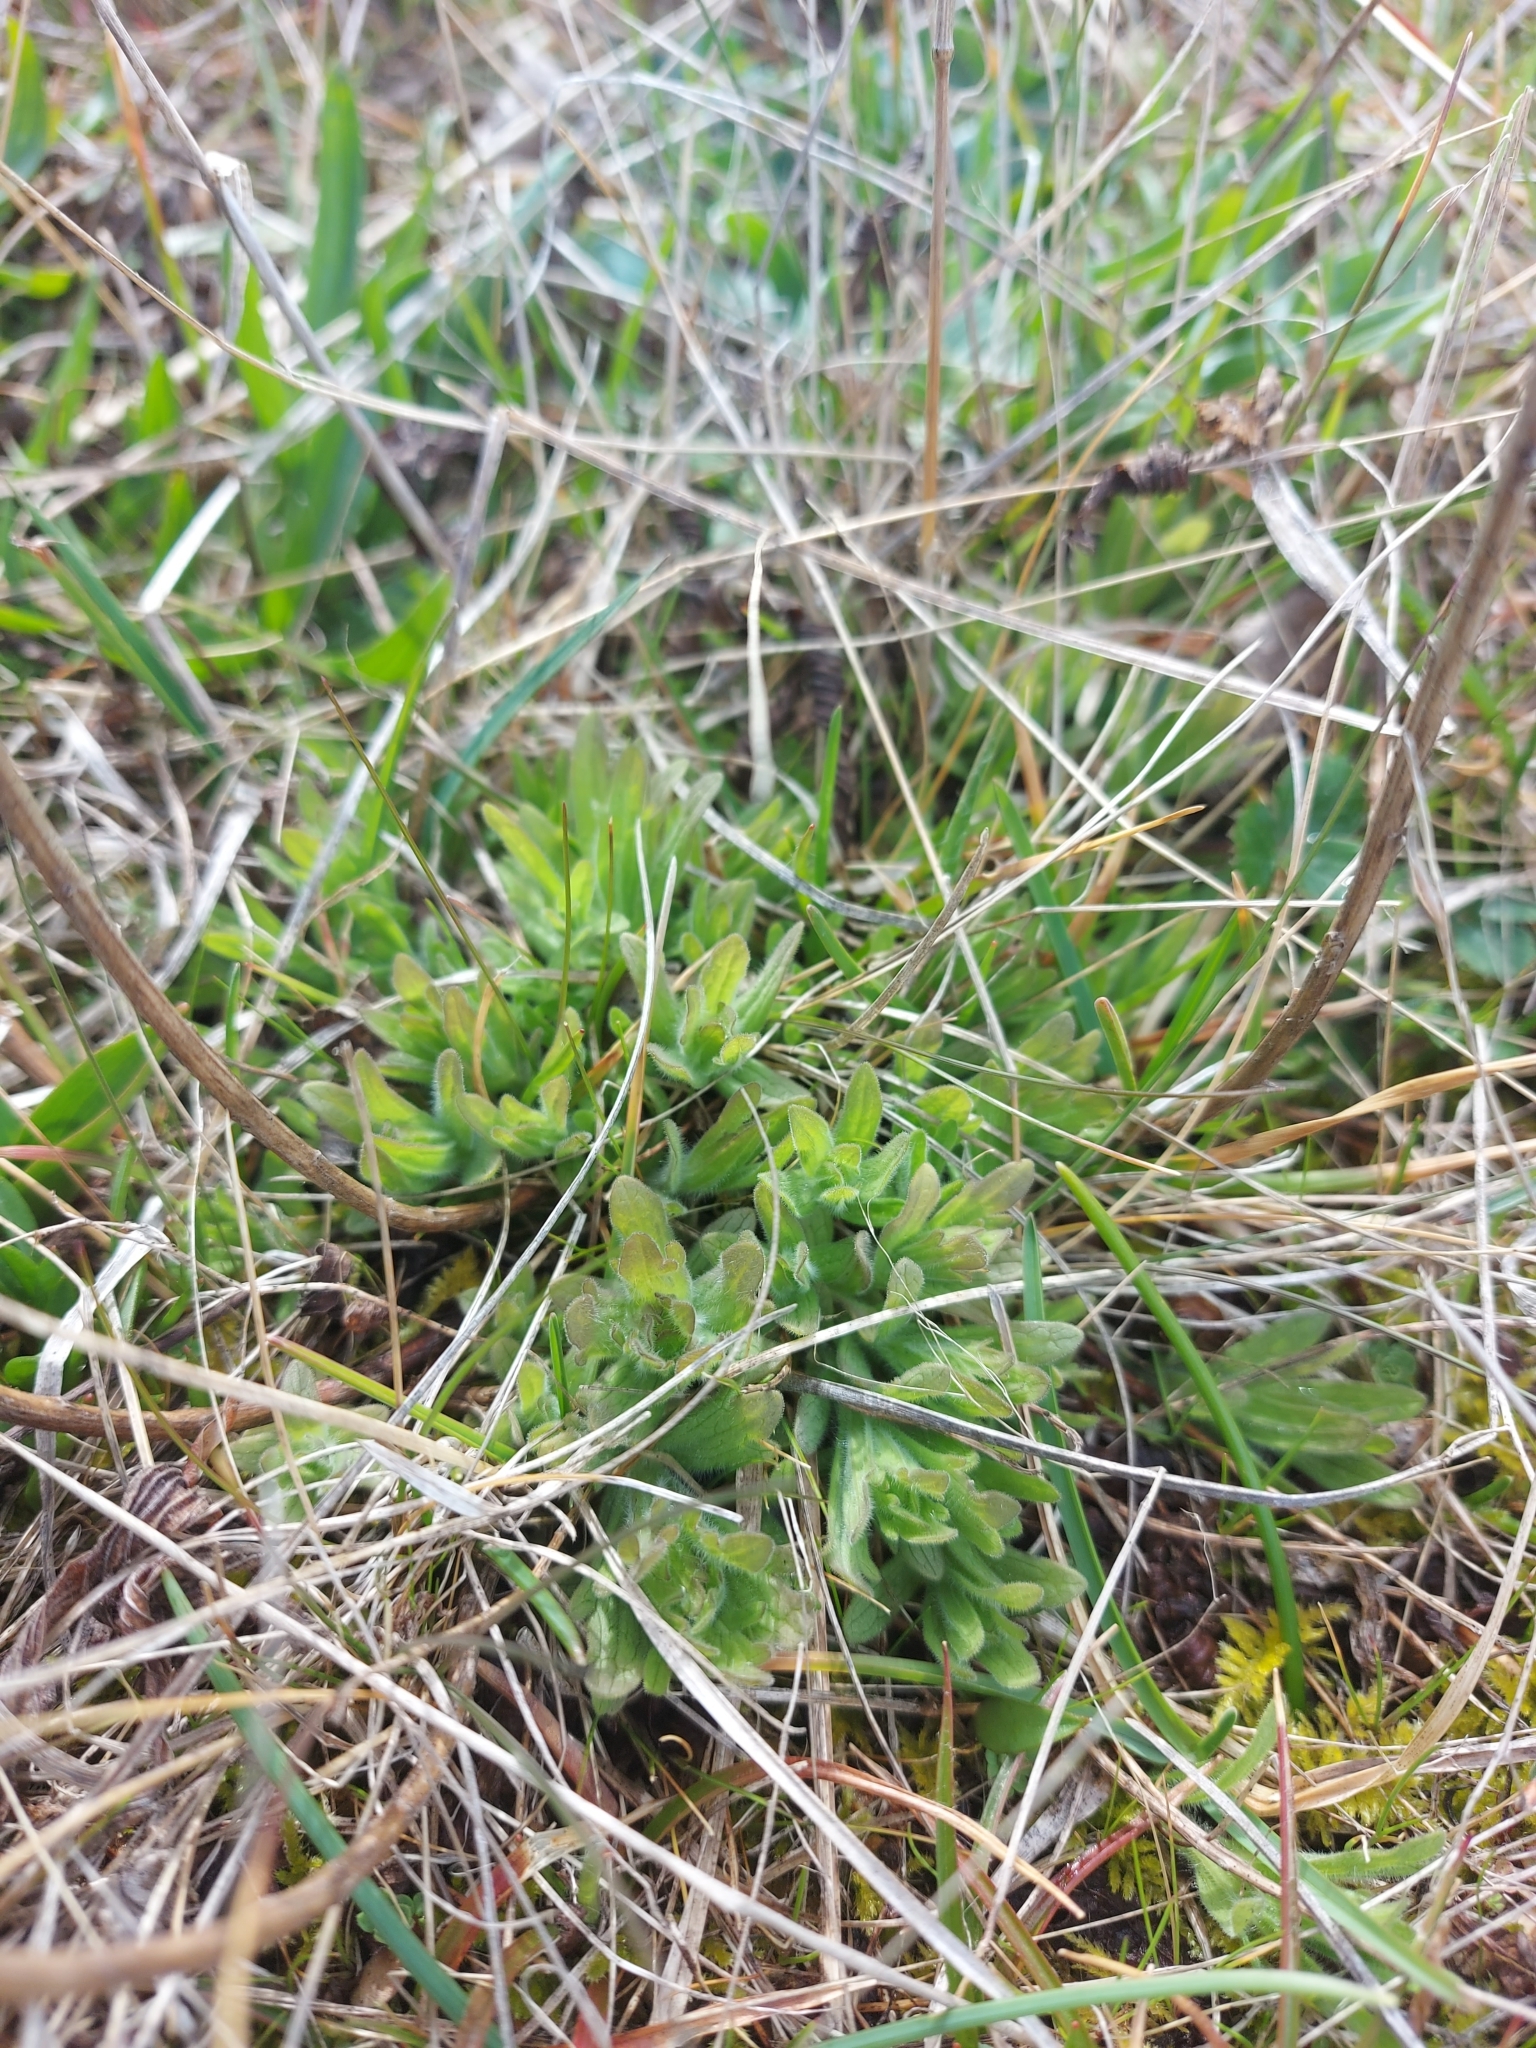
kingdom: Plantae
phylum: Tracheophyta
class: Magnoliopsida
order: Lamiales
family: Orobanchaceae
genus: Castilleja
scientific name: Castilleja levisecta
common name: Golden paintbrush
